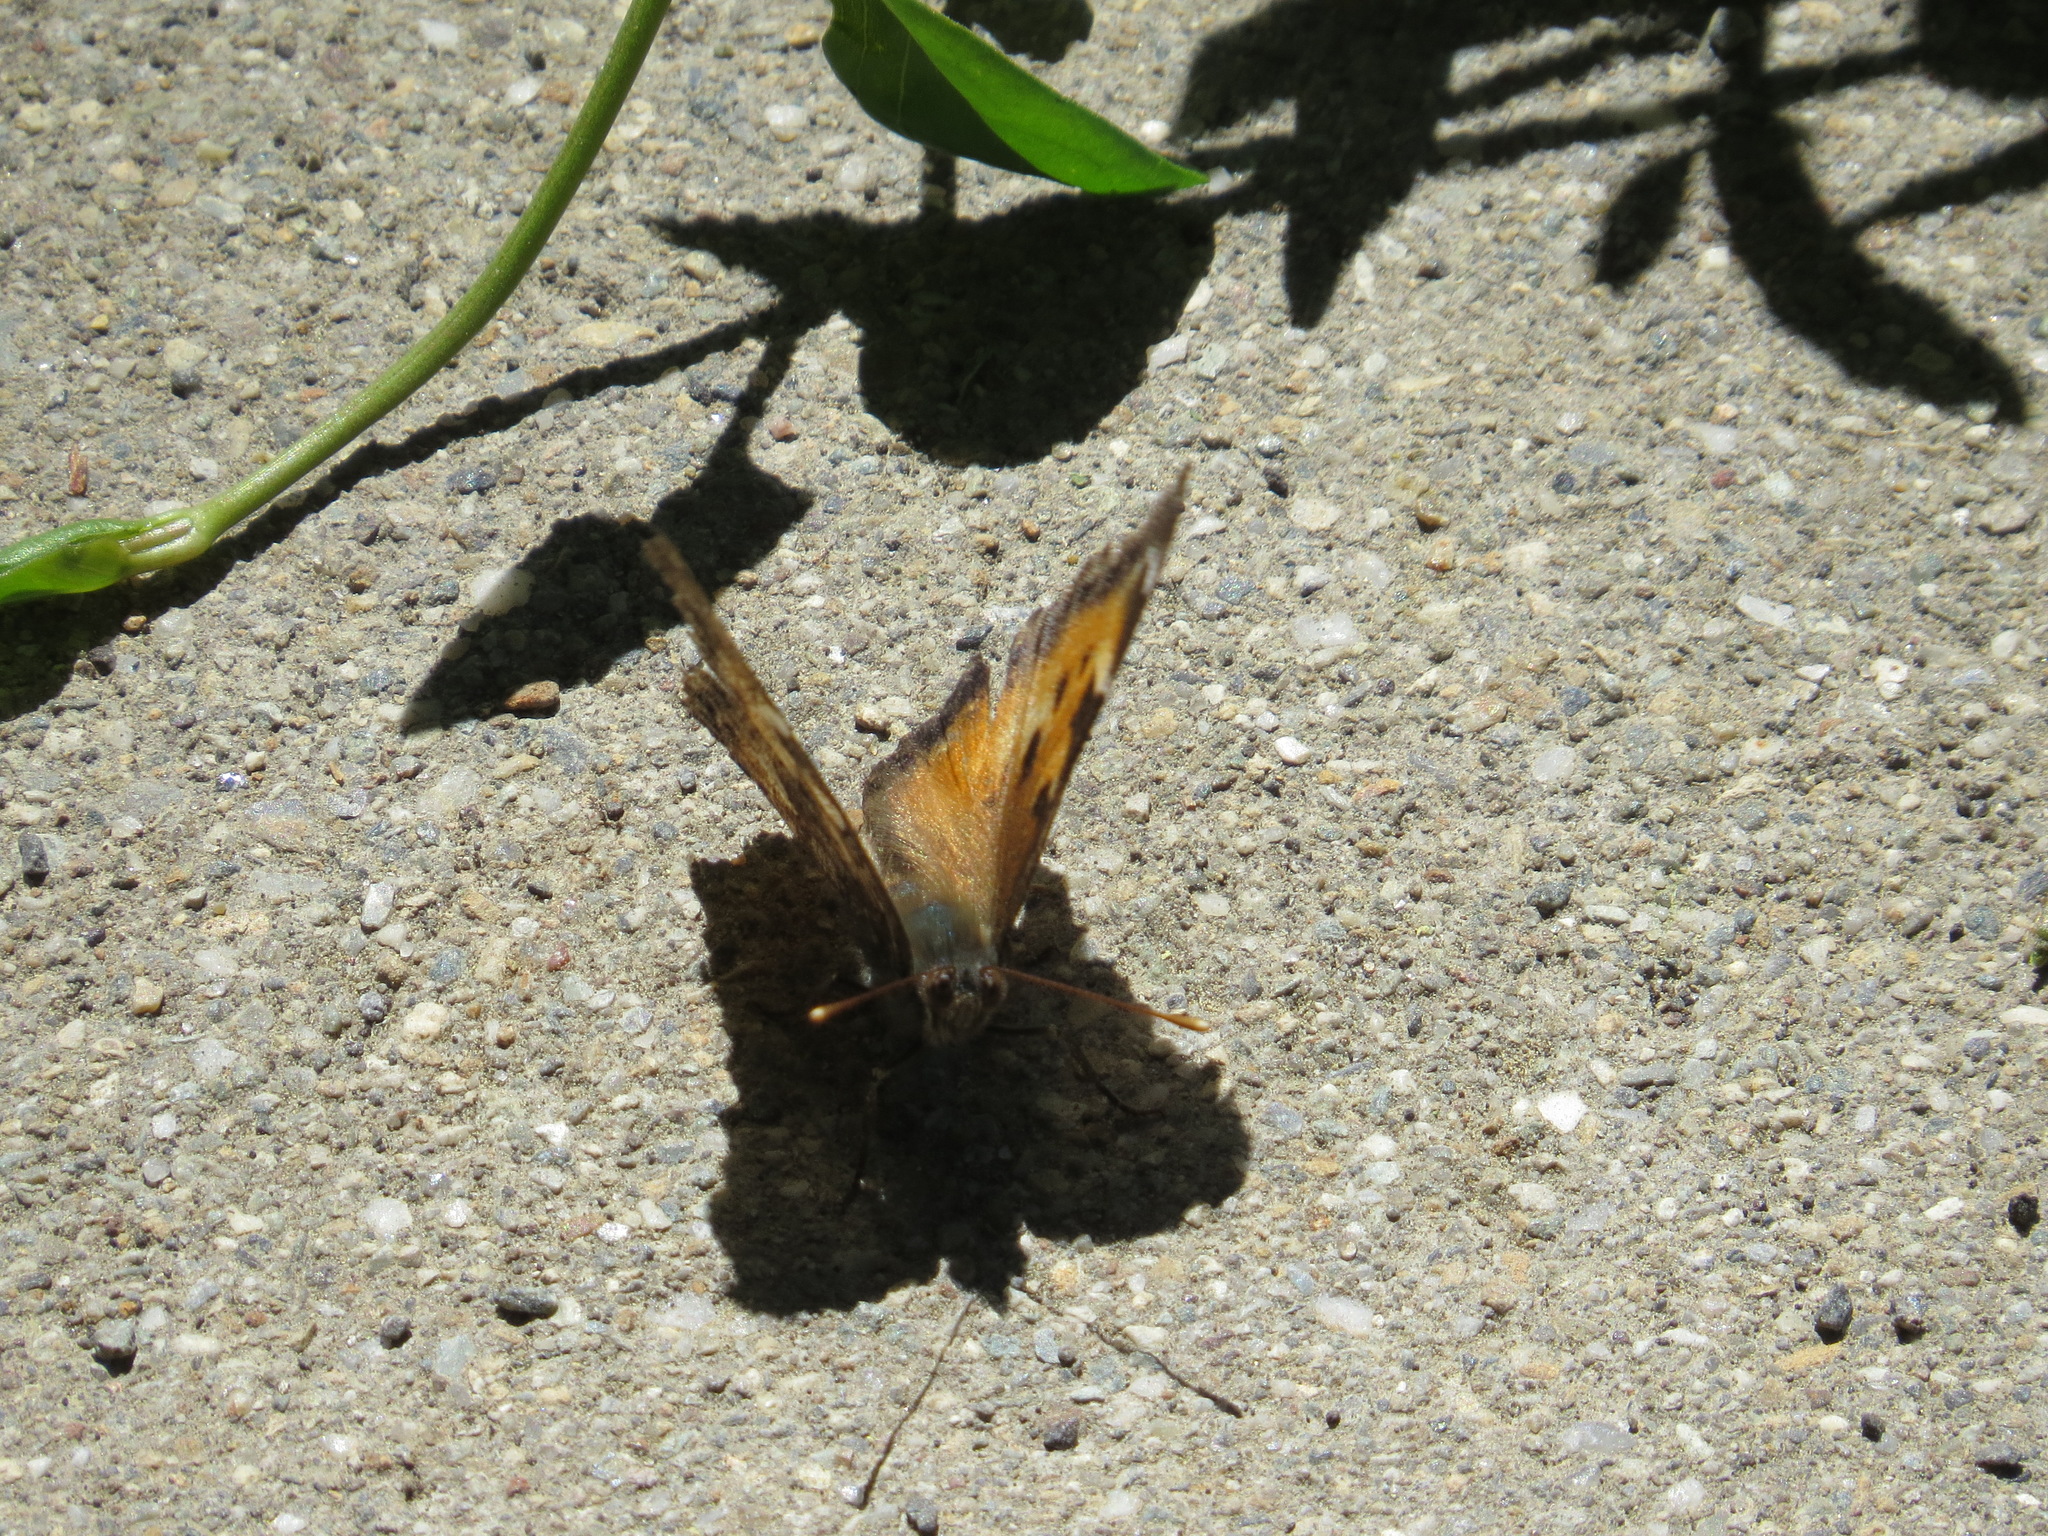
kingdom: Animalia
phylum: Arthropoda
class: Insecta
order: Lepidoptera
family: Nymphalidae
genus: Nymphalis
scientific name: Nymphalis californica
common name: California tortoiseshell
